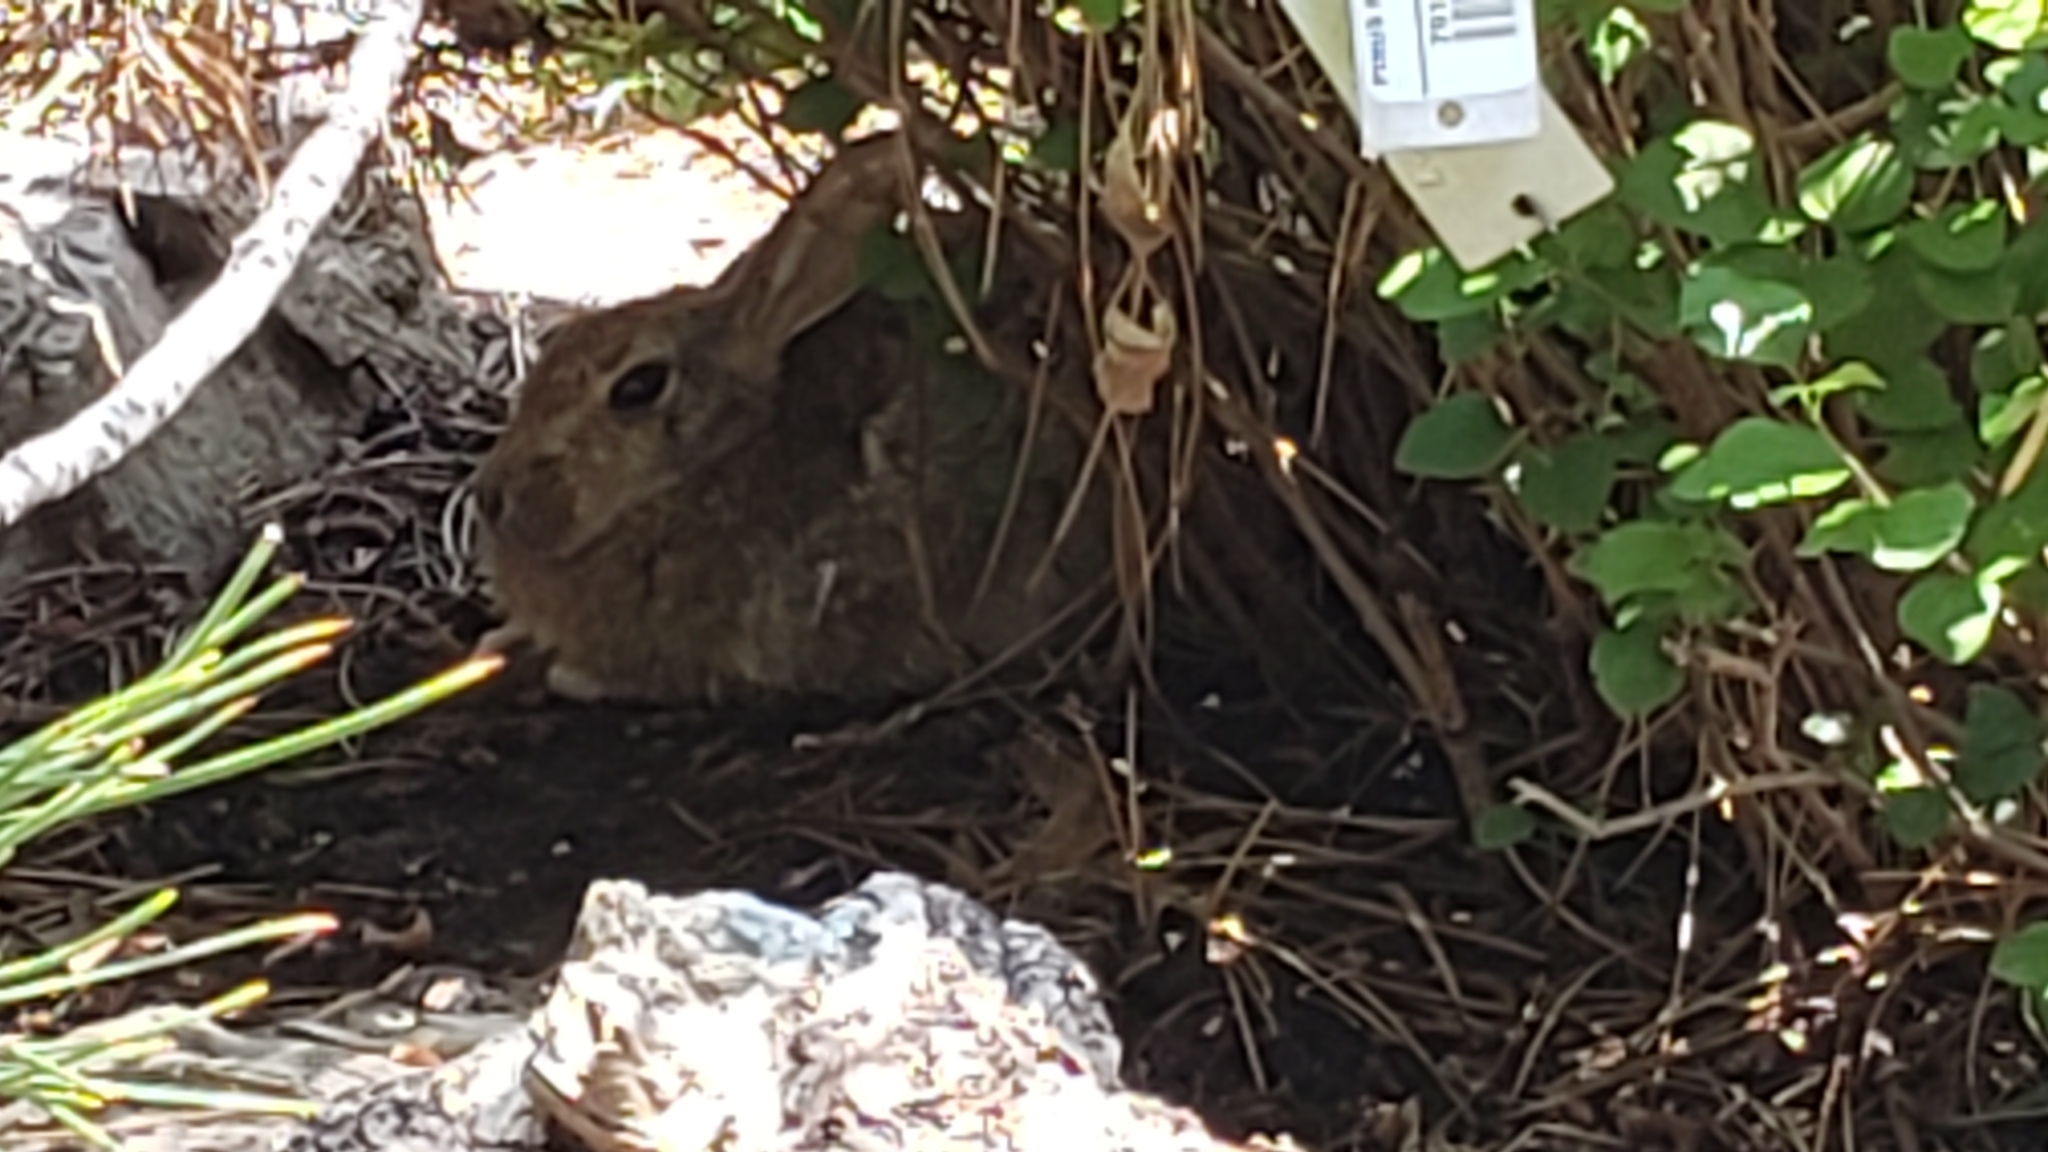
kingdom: Animalia
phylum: Chordata
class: Mammalia
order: Lagomorpha
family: Leporidae
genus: Sylvilagus
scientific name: Sylvilagus audubonii
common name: Desert cottontail
